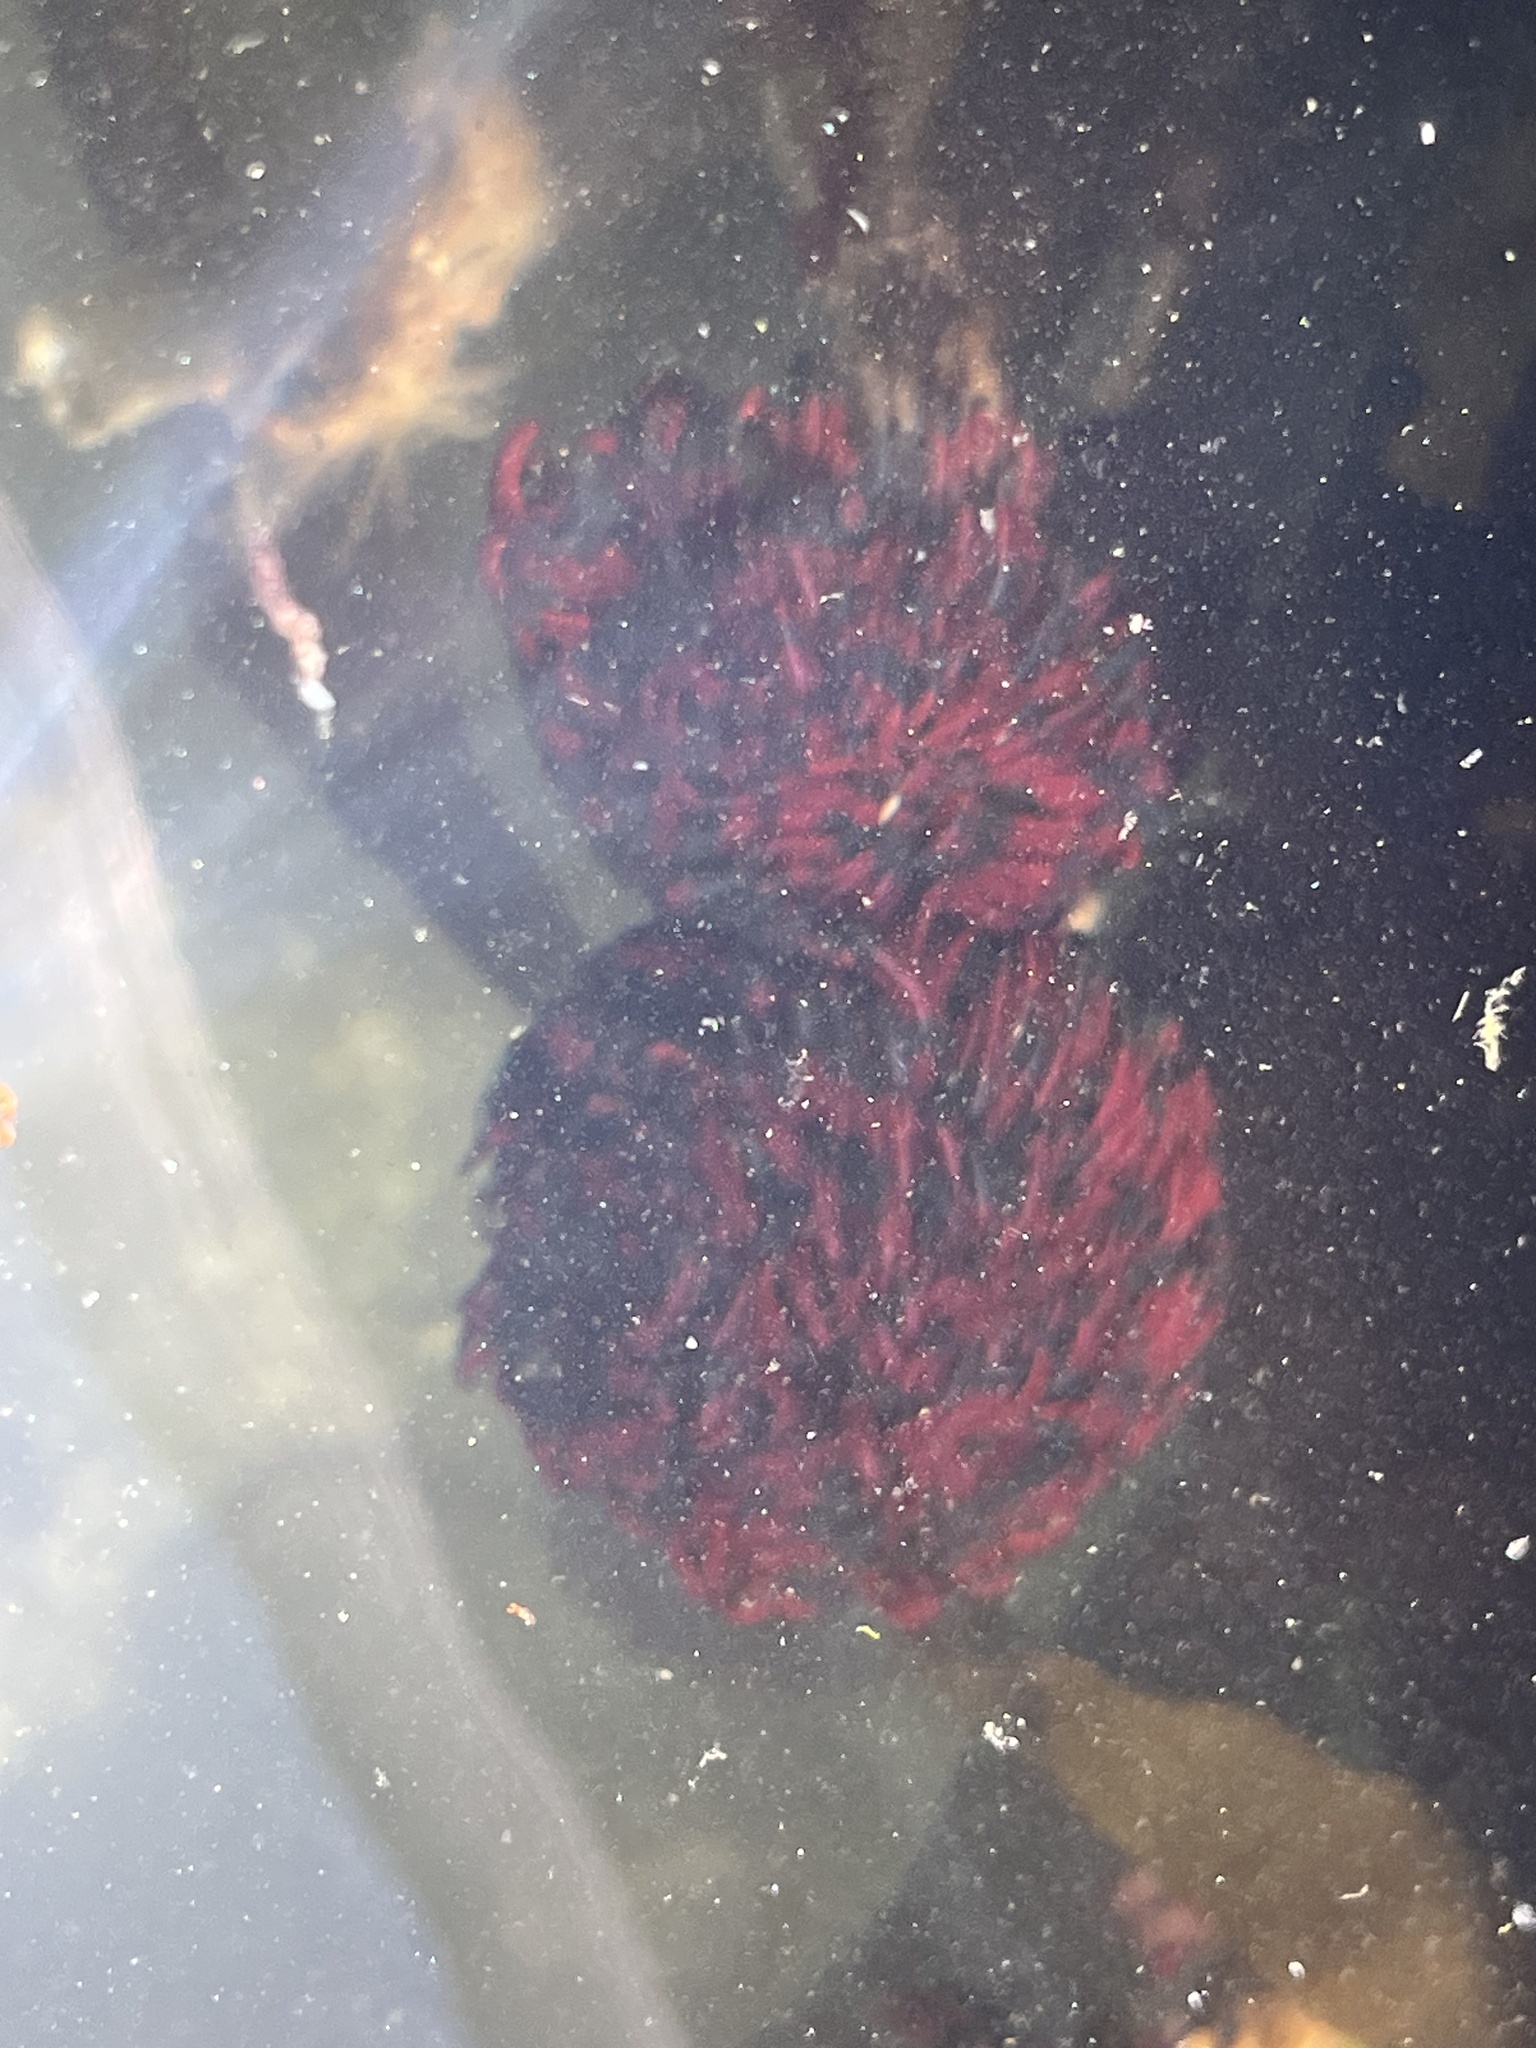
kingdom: Animalia
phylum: Annelida
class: Polychaeta
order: Sabellida
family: Sabellidae
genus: Eudistylia
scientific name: Eudistylia vancouveri
